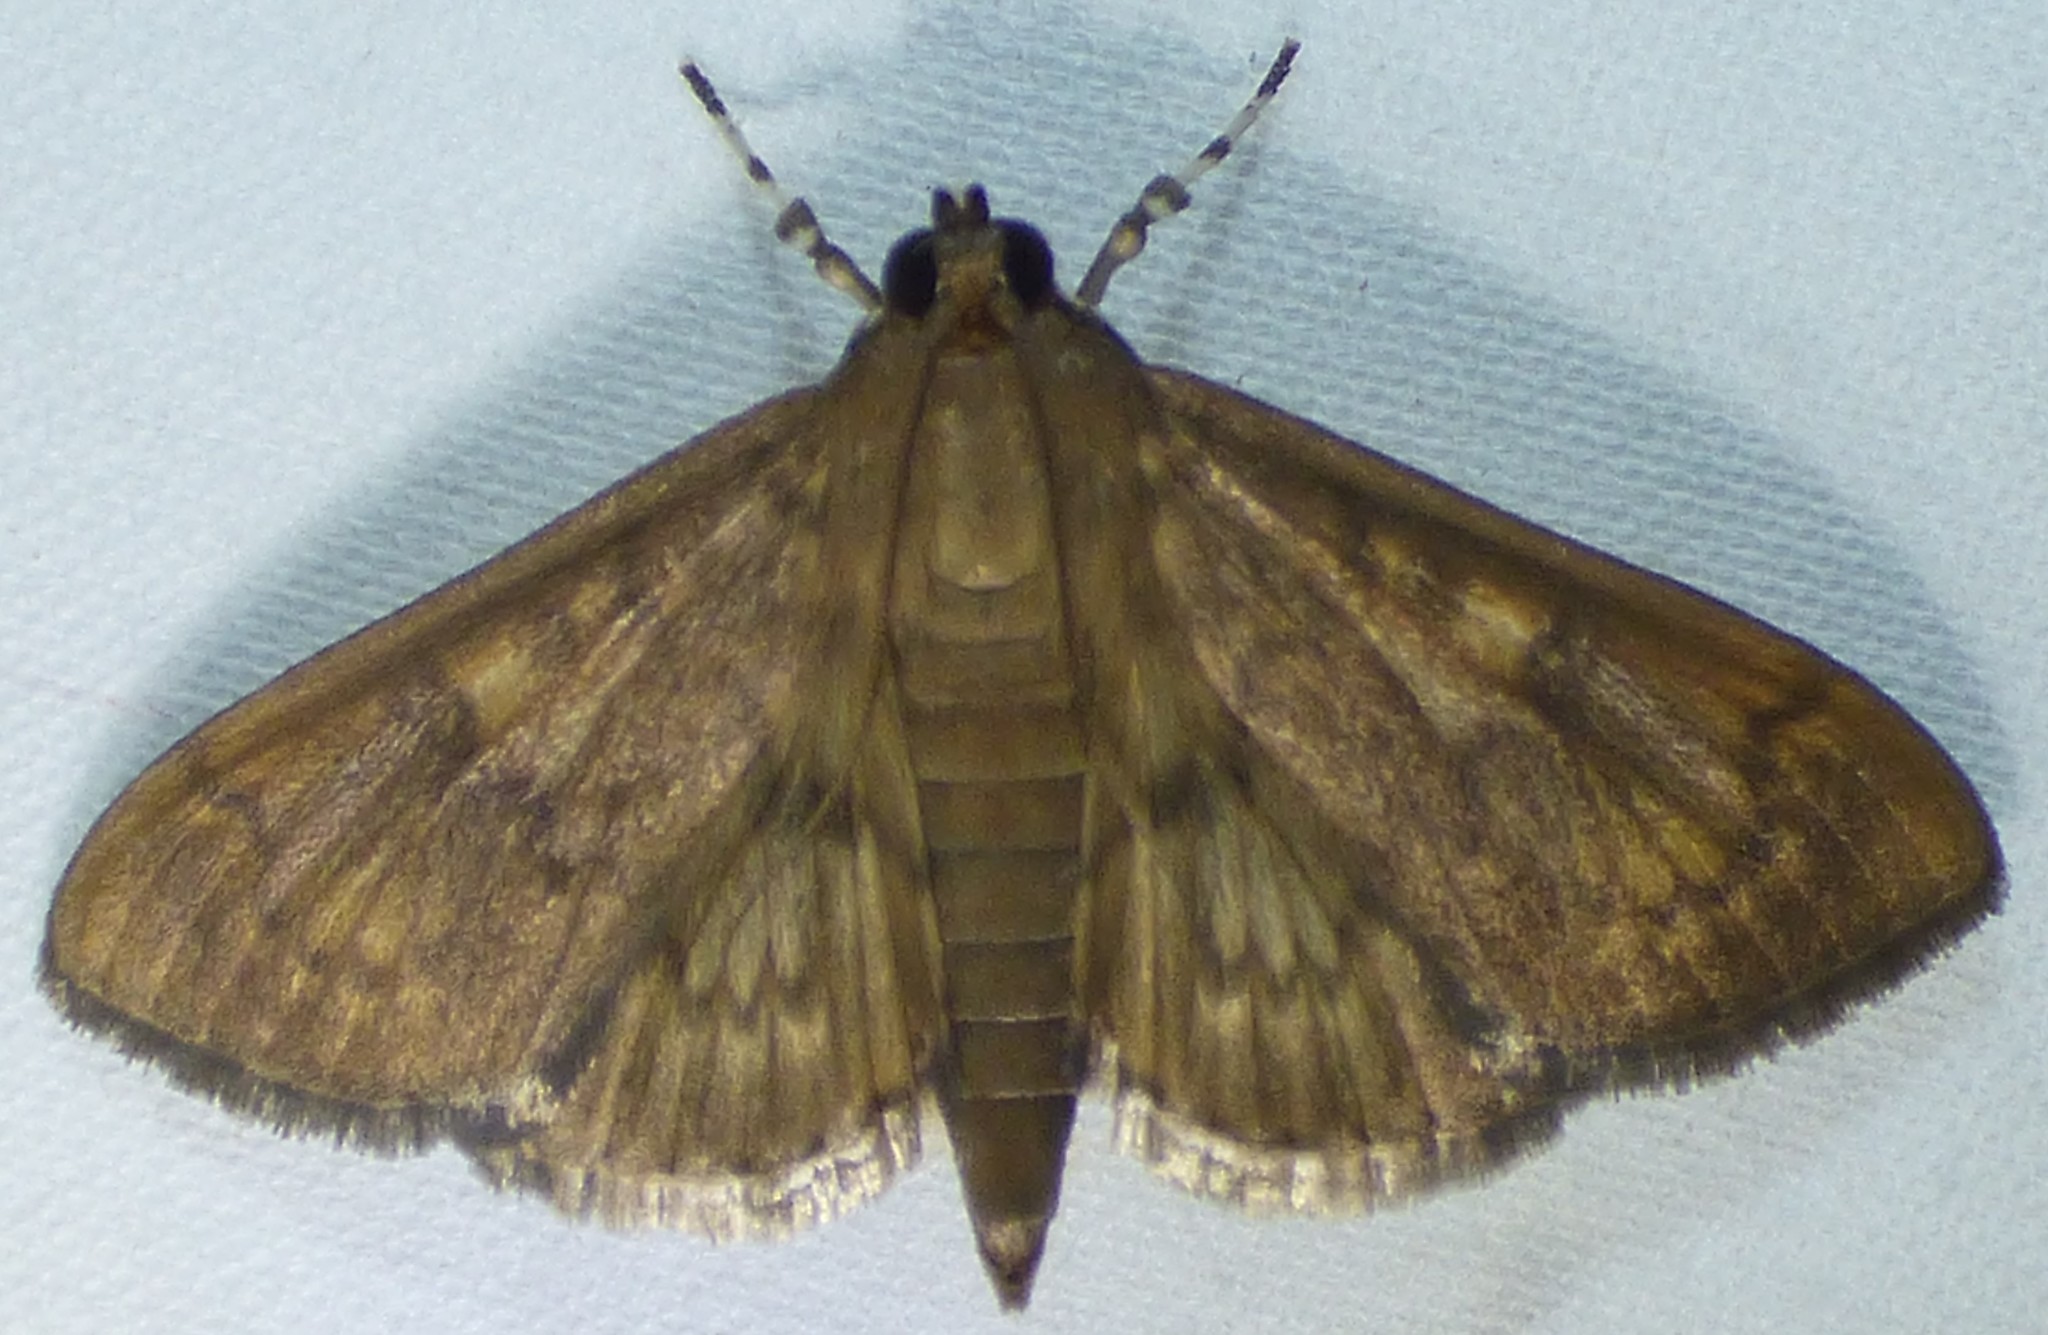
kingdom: Animalia
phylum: Arthropoda
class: Insecta
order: Lepidoptera
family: Crambidae
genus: Syllepte
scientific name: Syllepte obscuralis
